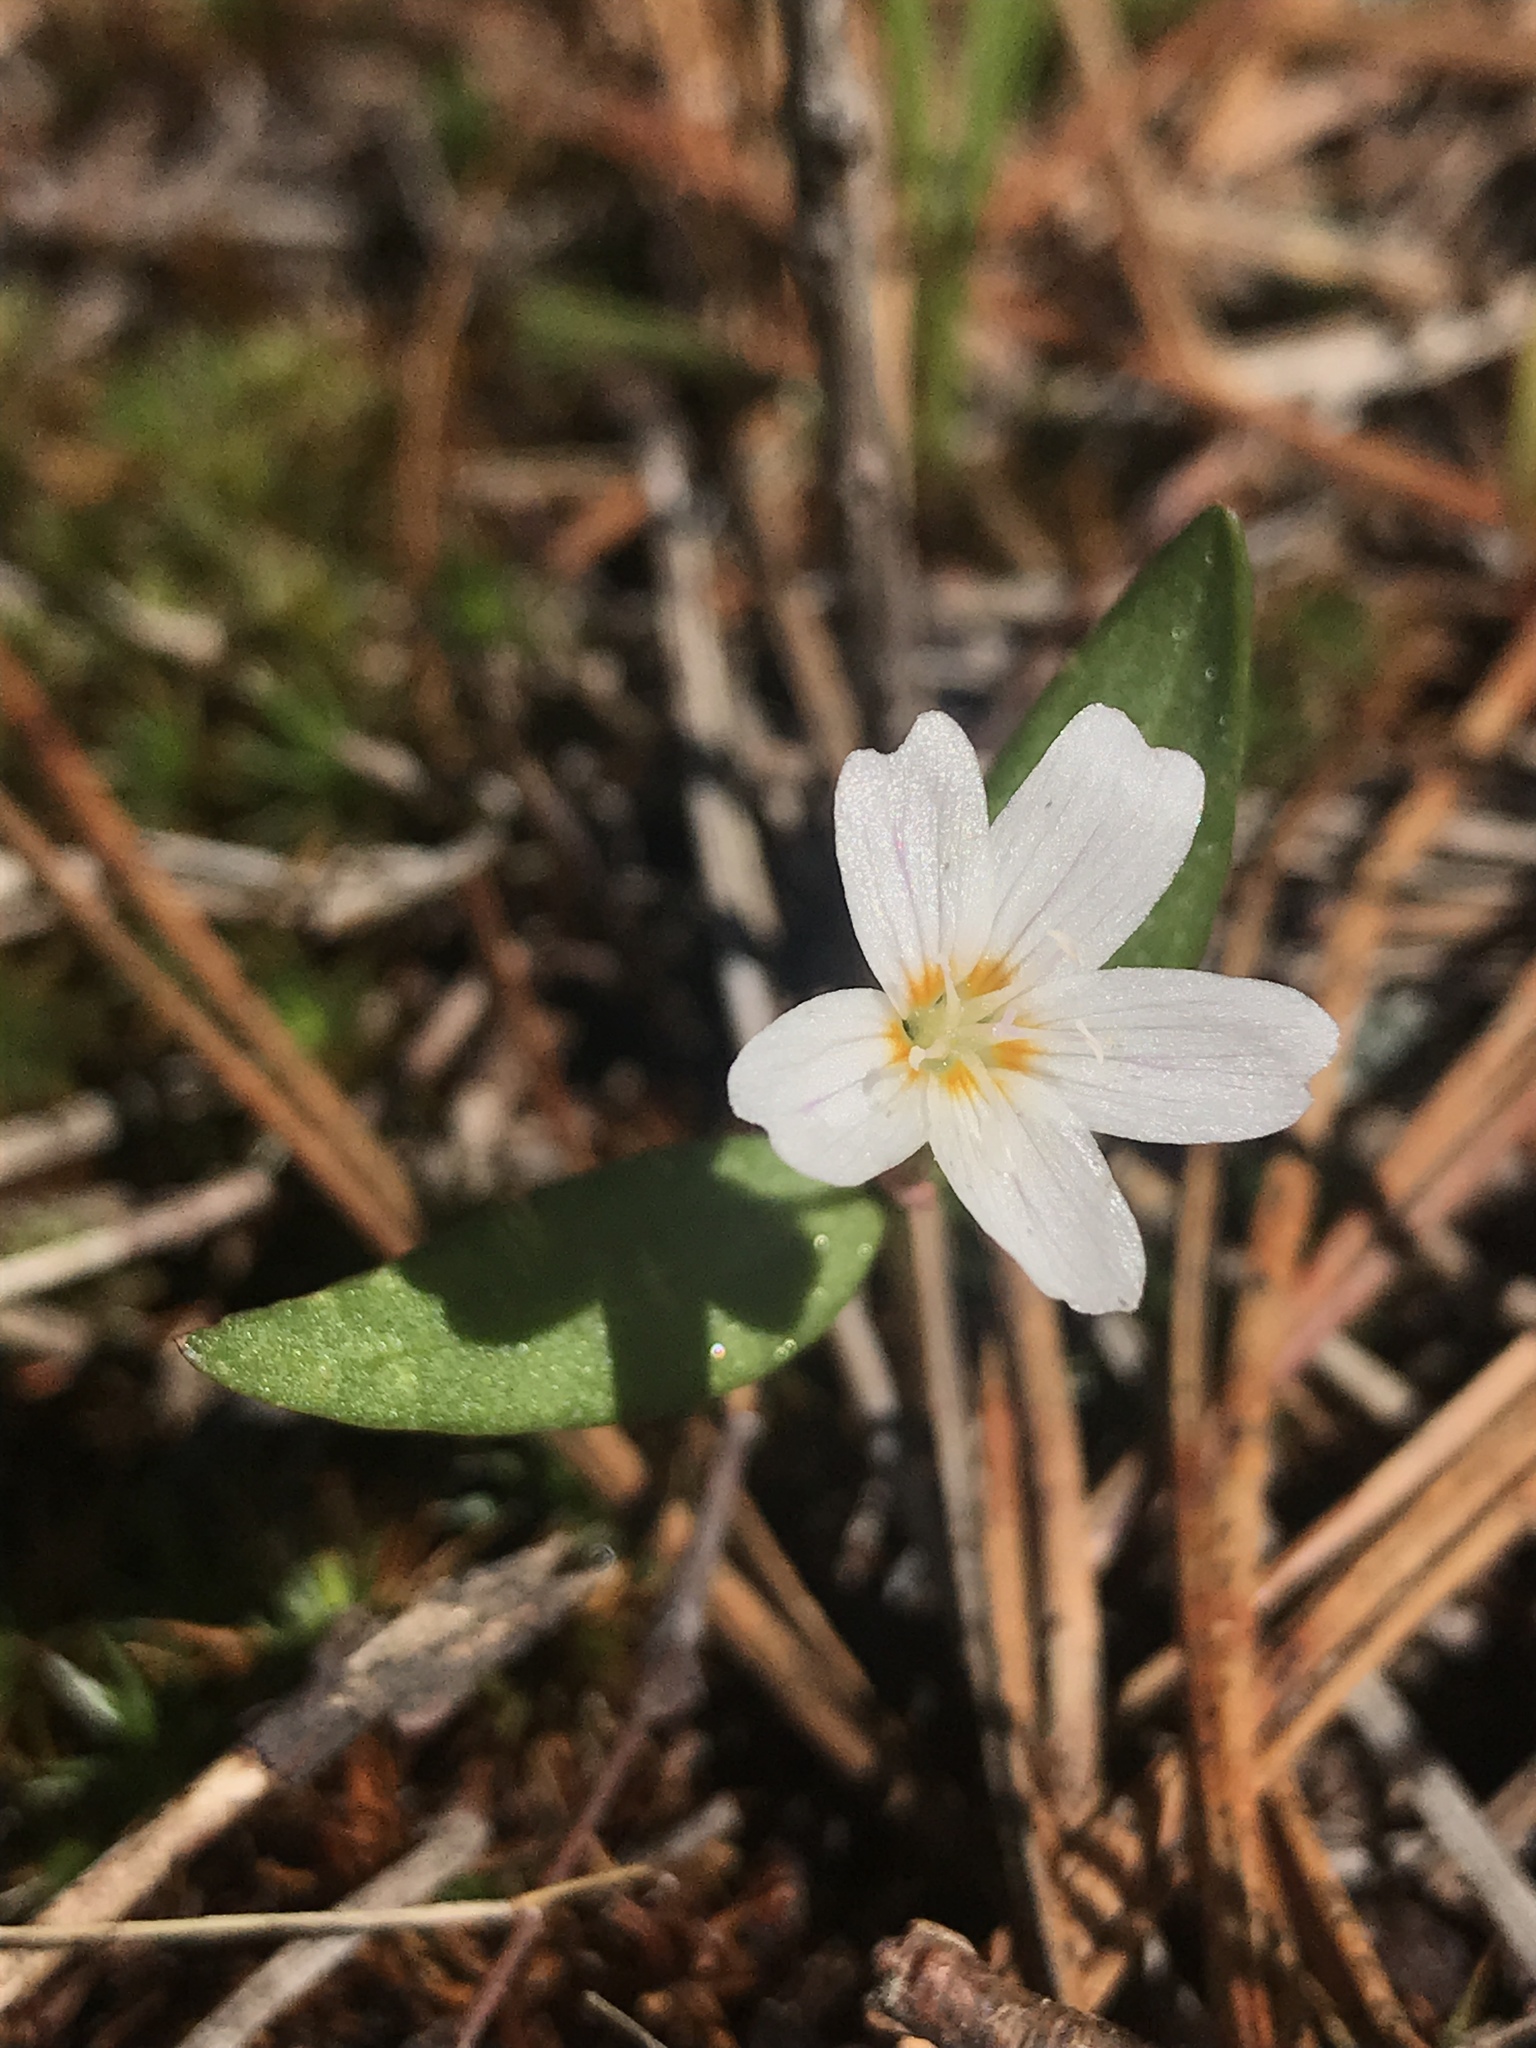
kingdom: Plantae
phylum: Tracheophyta
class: Magnoliopsida
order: Caryophyllales
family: Montiaceae
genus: Claytonia
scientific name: Claytonia lanceolata
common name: Western spring-beauty
